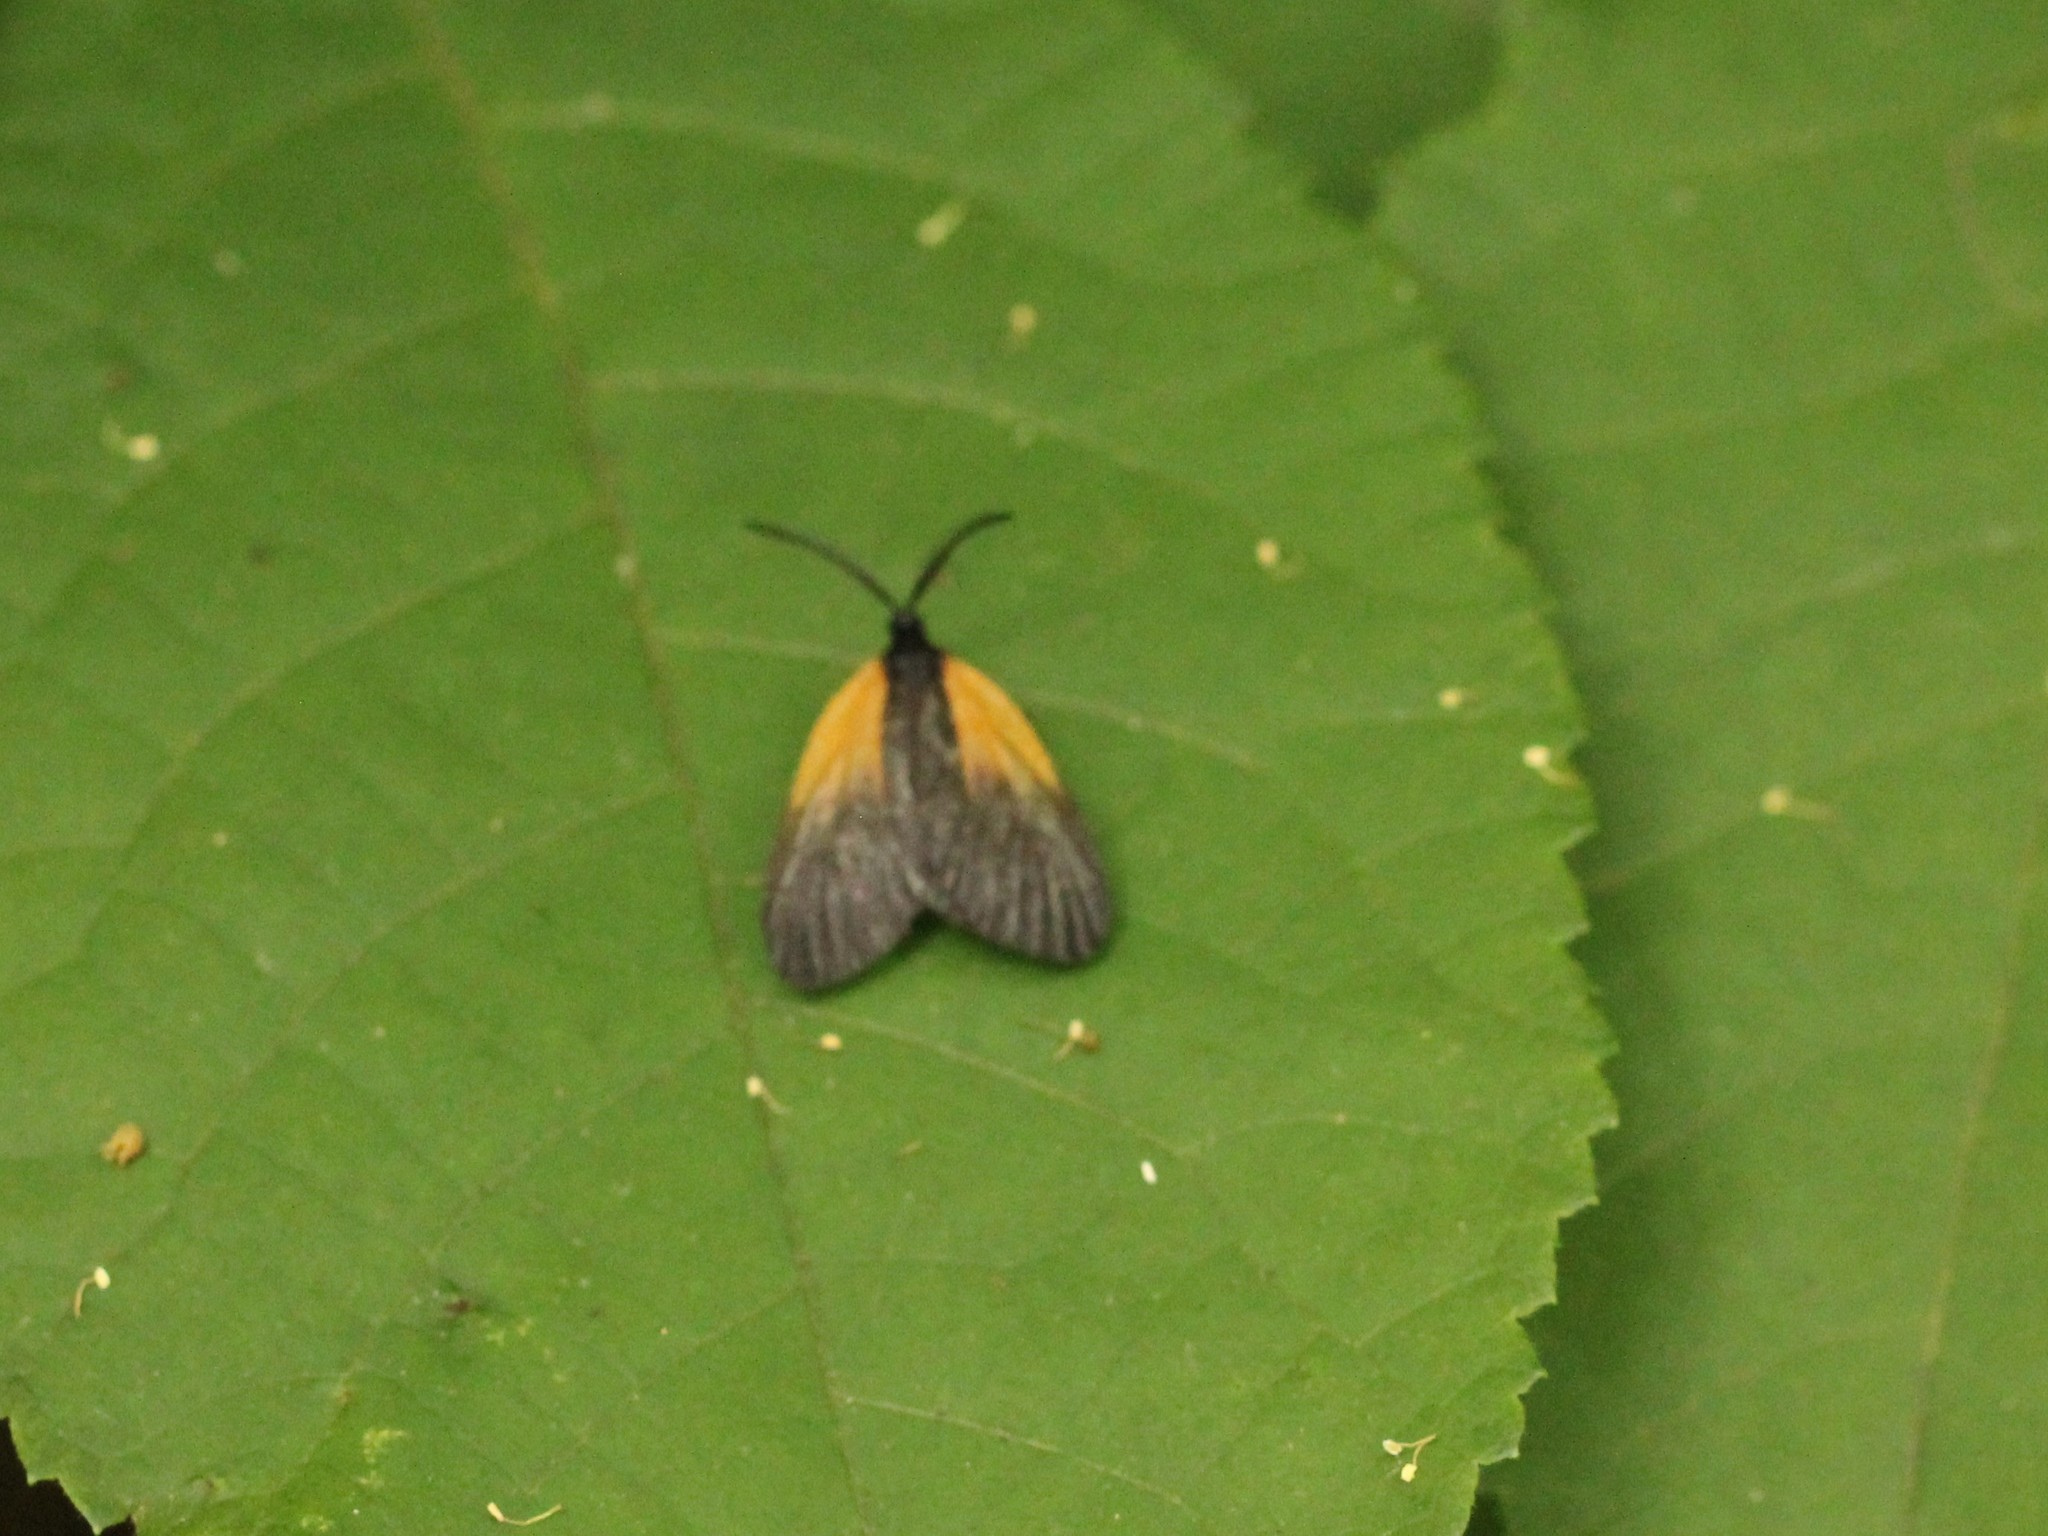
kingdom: Animalia
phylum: Arthropoda
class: Insecta
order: Lepidoptera
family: Zygaenidae
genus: Malthaca
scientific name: Malthaca dimidiata
